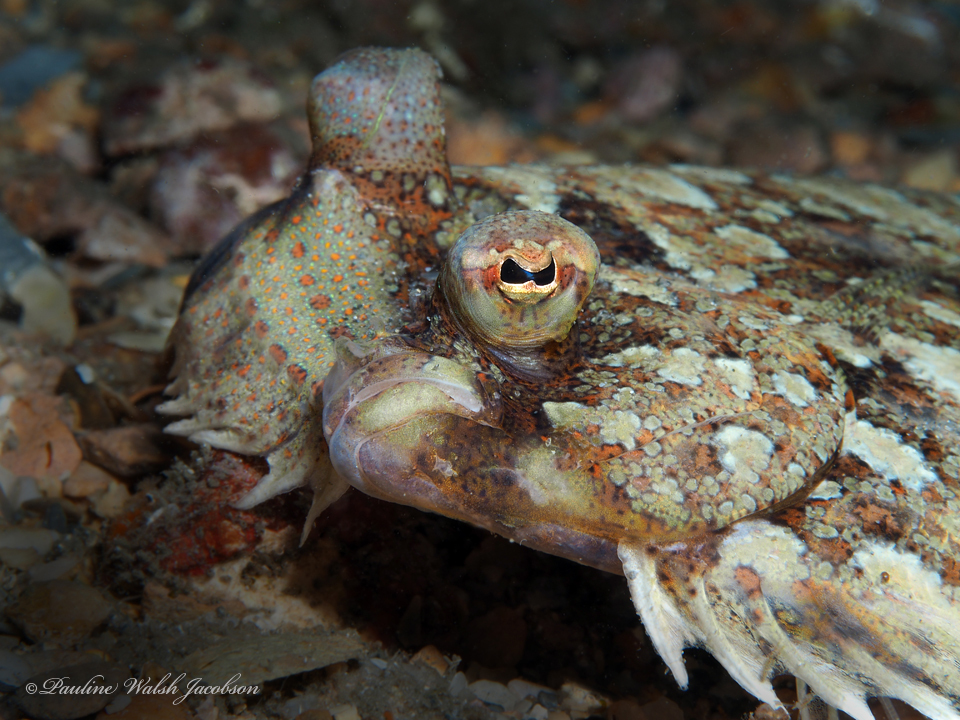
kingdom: Animalia
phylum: Chordata
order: Pleuronectiformes
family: Bothidae
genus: Bothus
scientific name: Bothus ocellatus
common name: Eyed flounder
